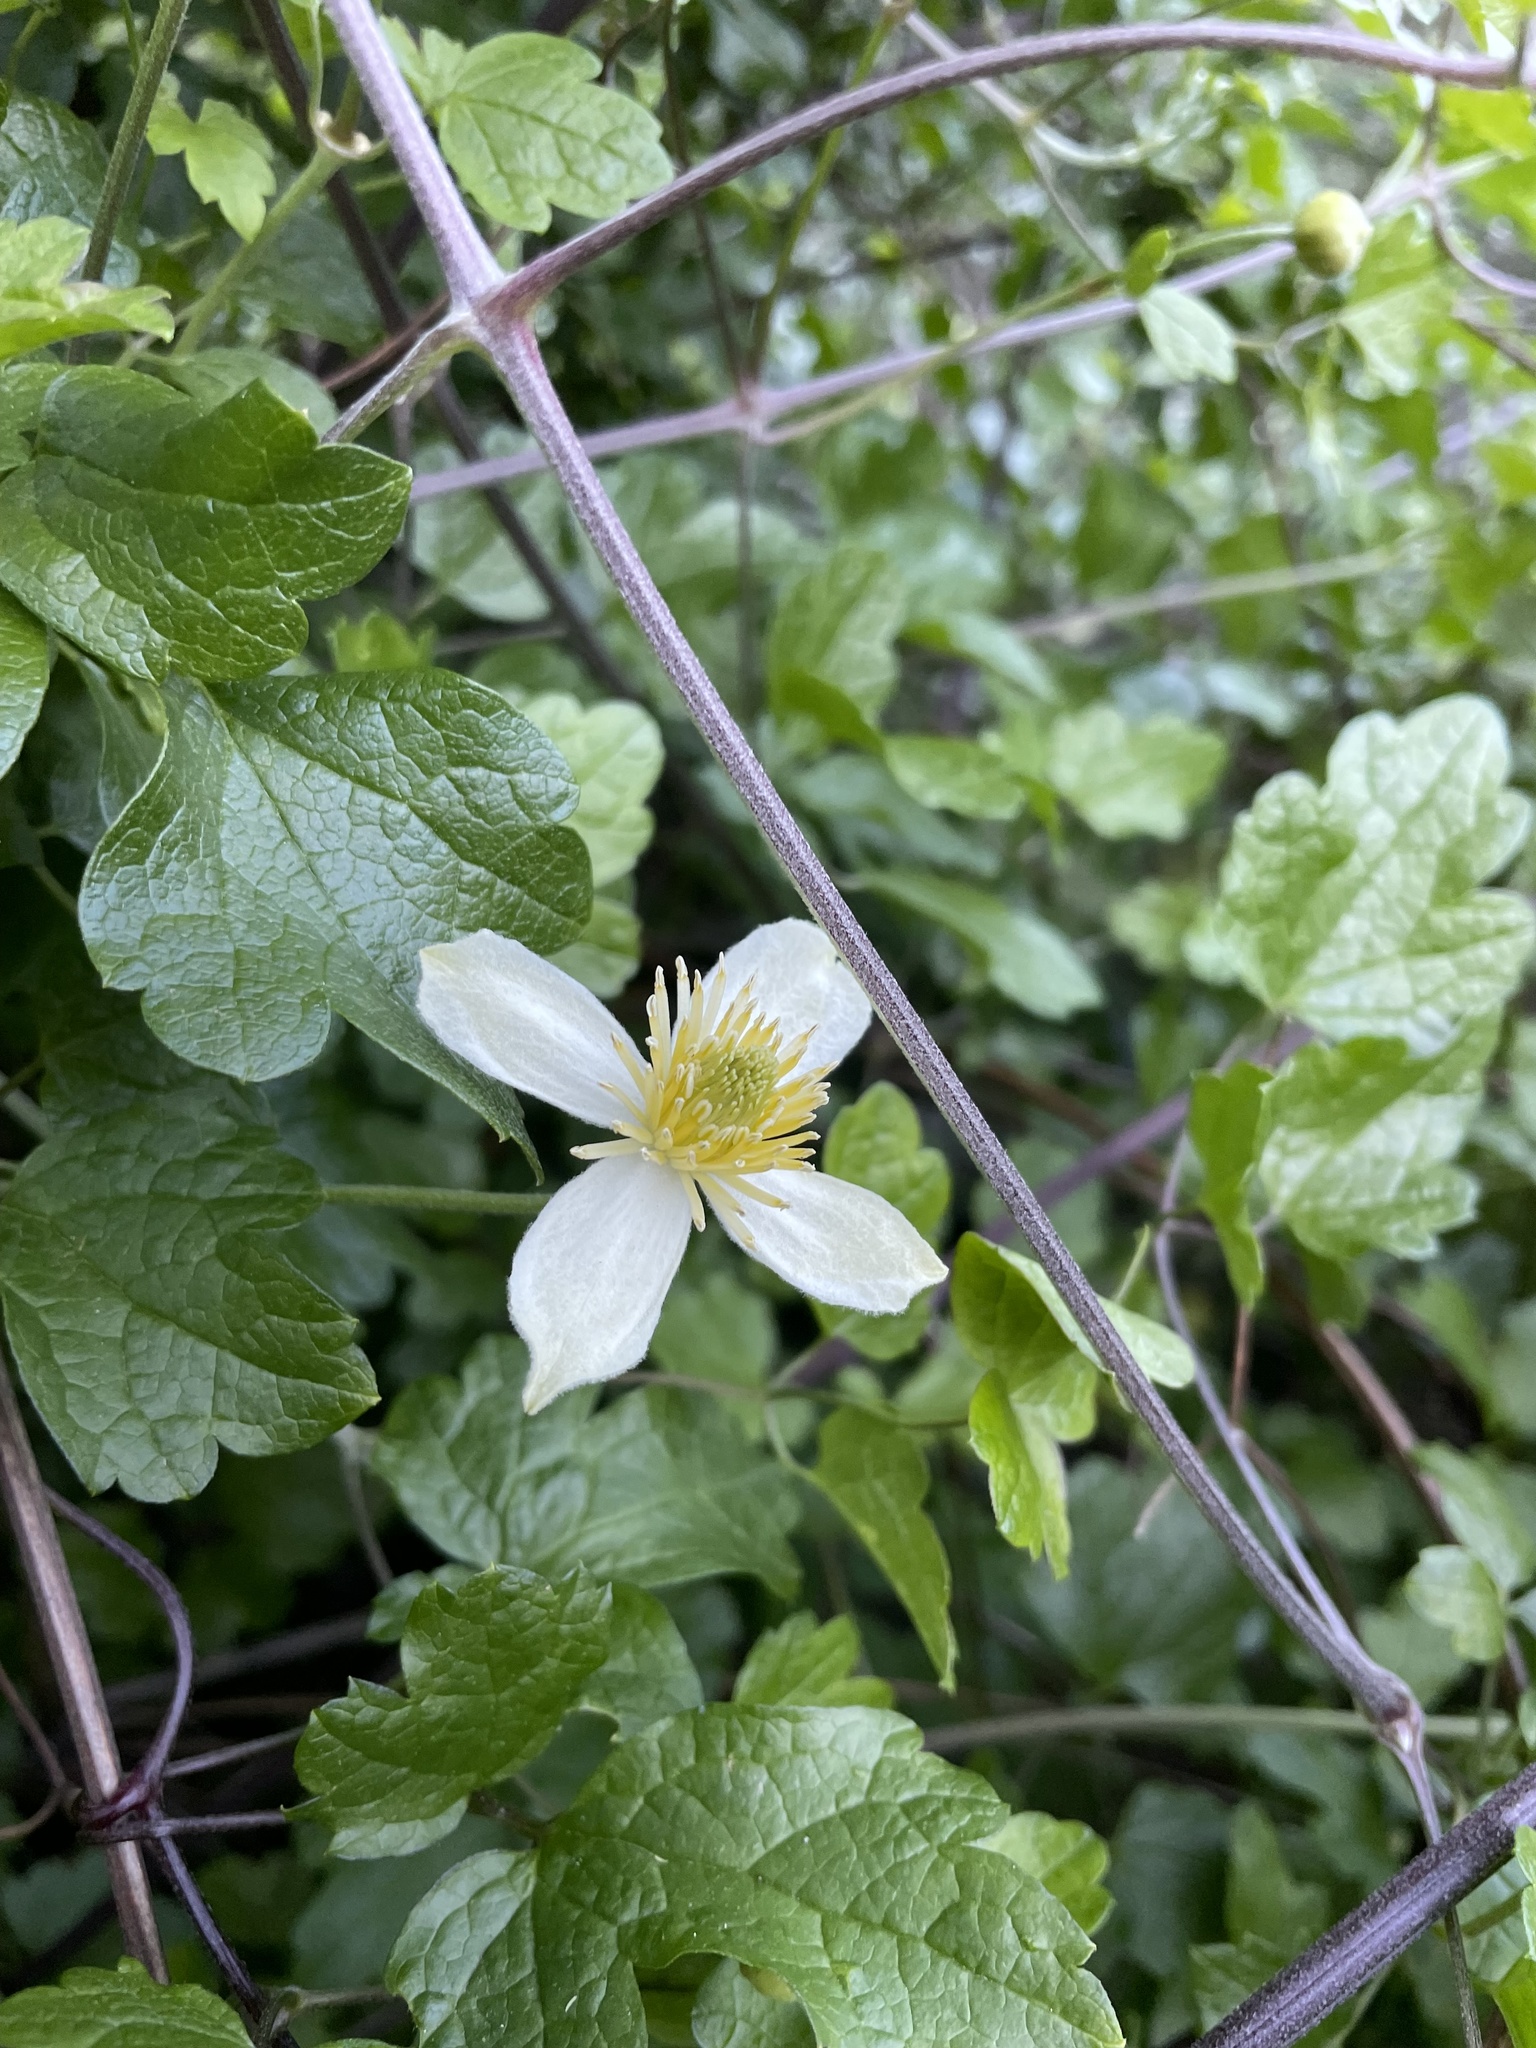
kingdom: Plantae
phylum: Tracheophyta
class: Magnoliopsida
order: Ranunculales
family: Ranunculaceae
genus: Clematis
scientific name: Clematis lasiantha
